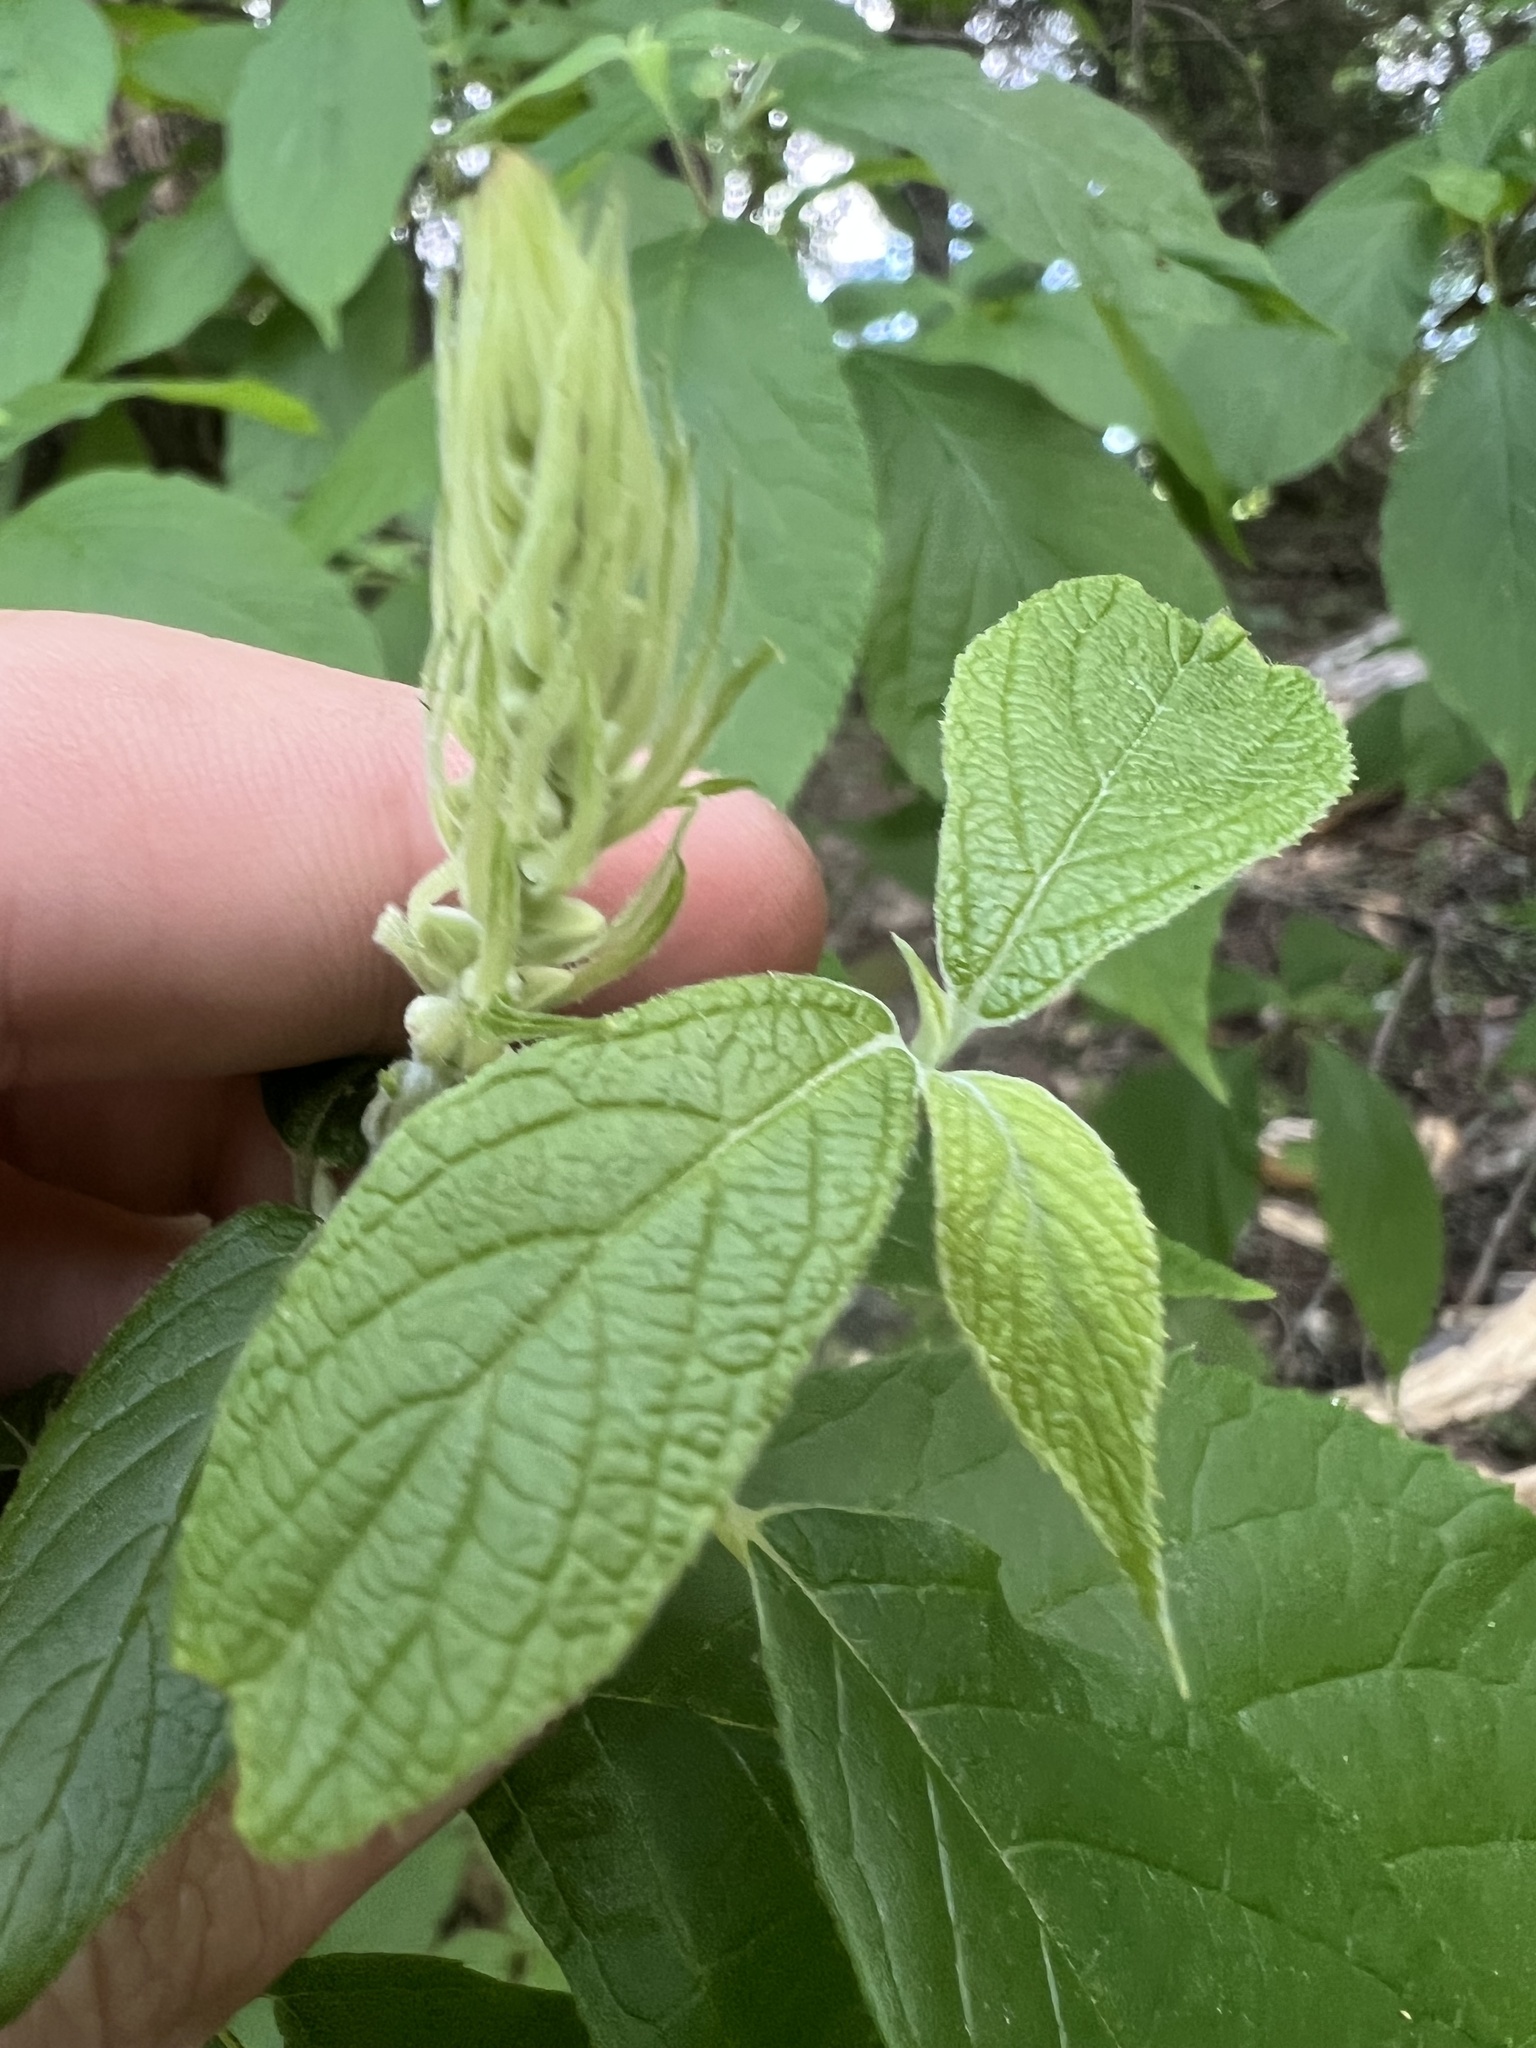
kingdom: Plantae
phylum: Tracheophyta
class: Magnoliopsida
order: Ericales
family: Clethraceae
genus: Clethra
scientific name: Clethra acuminata
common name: Mountain sweet pepperbush
